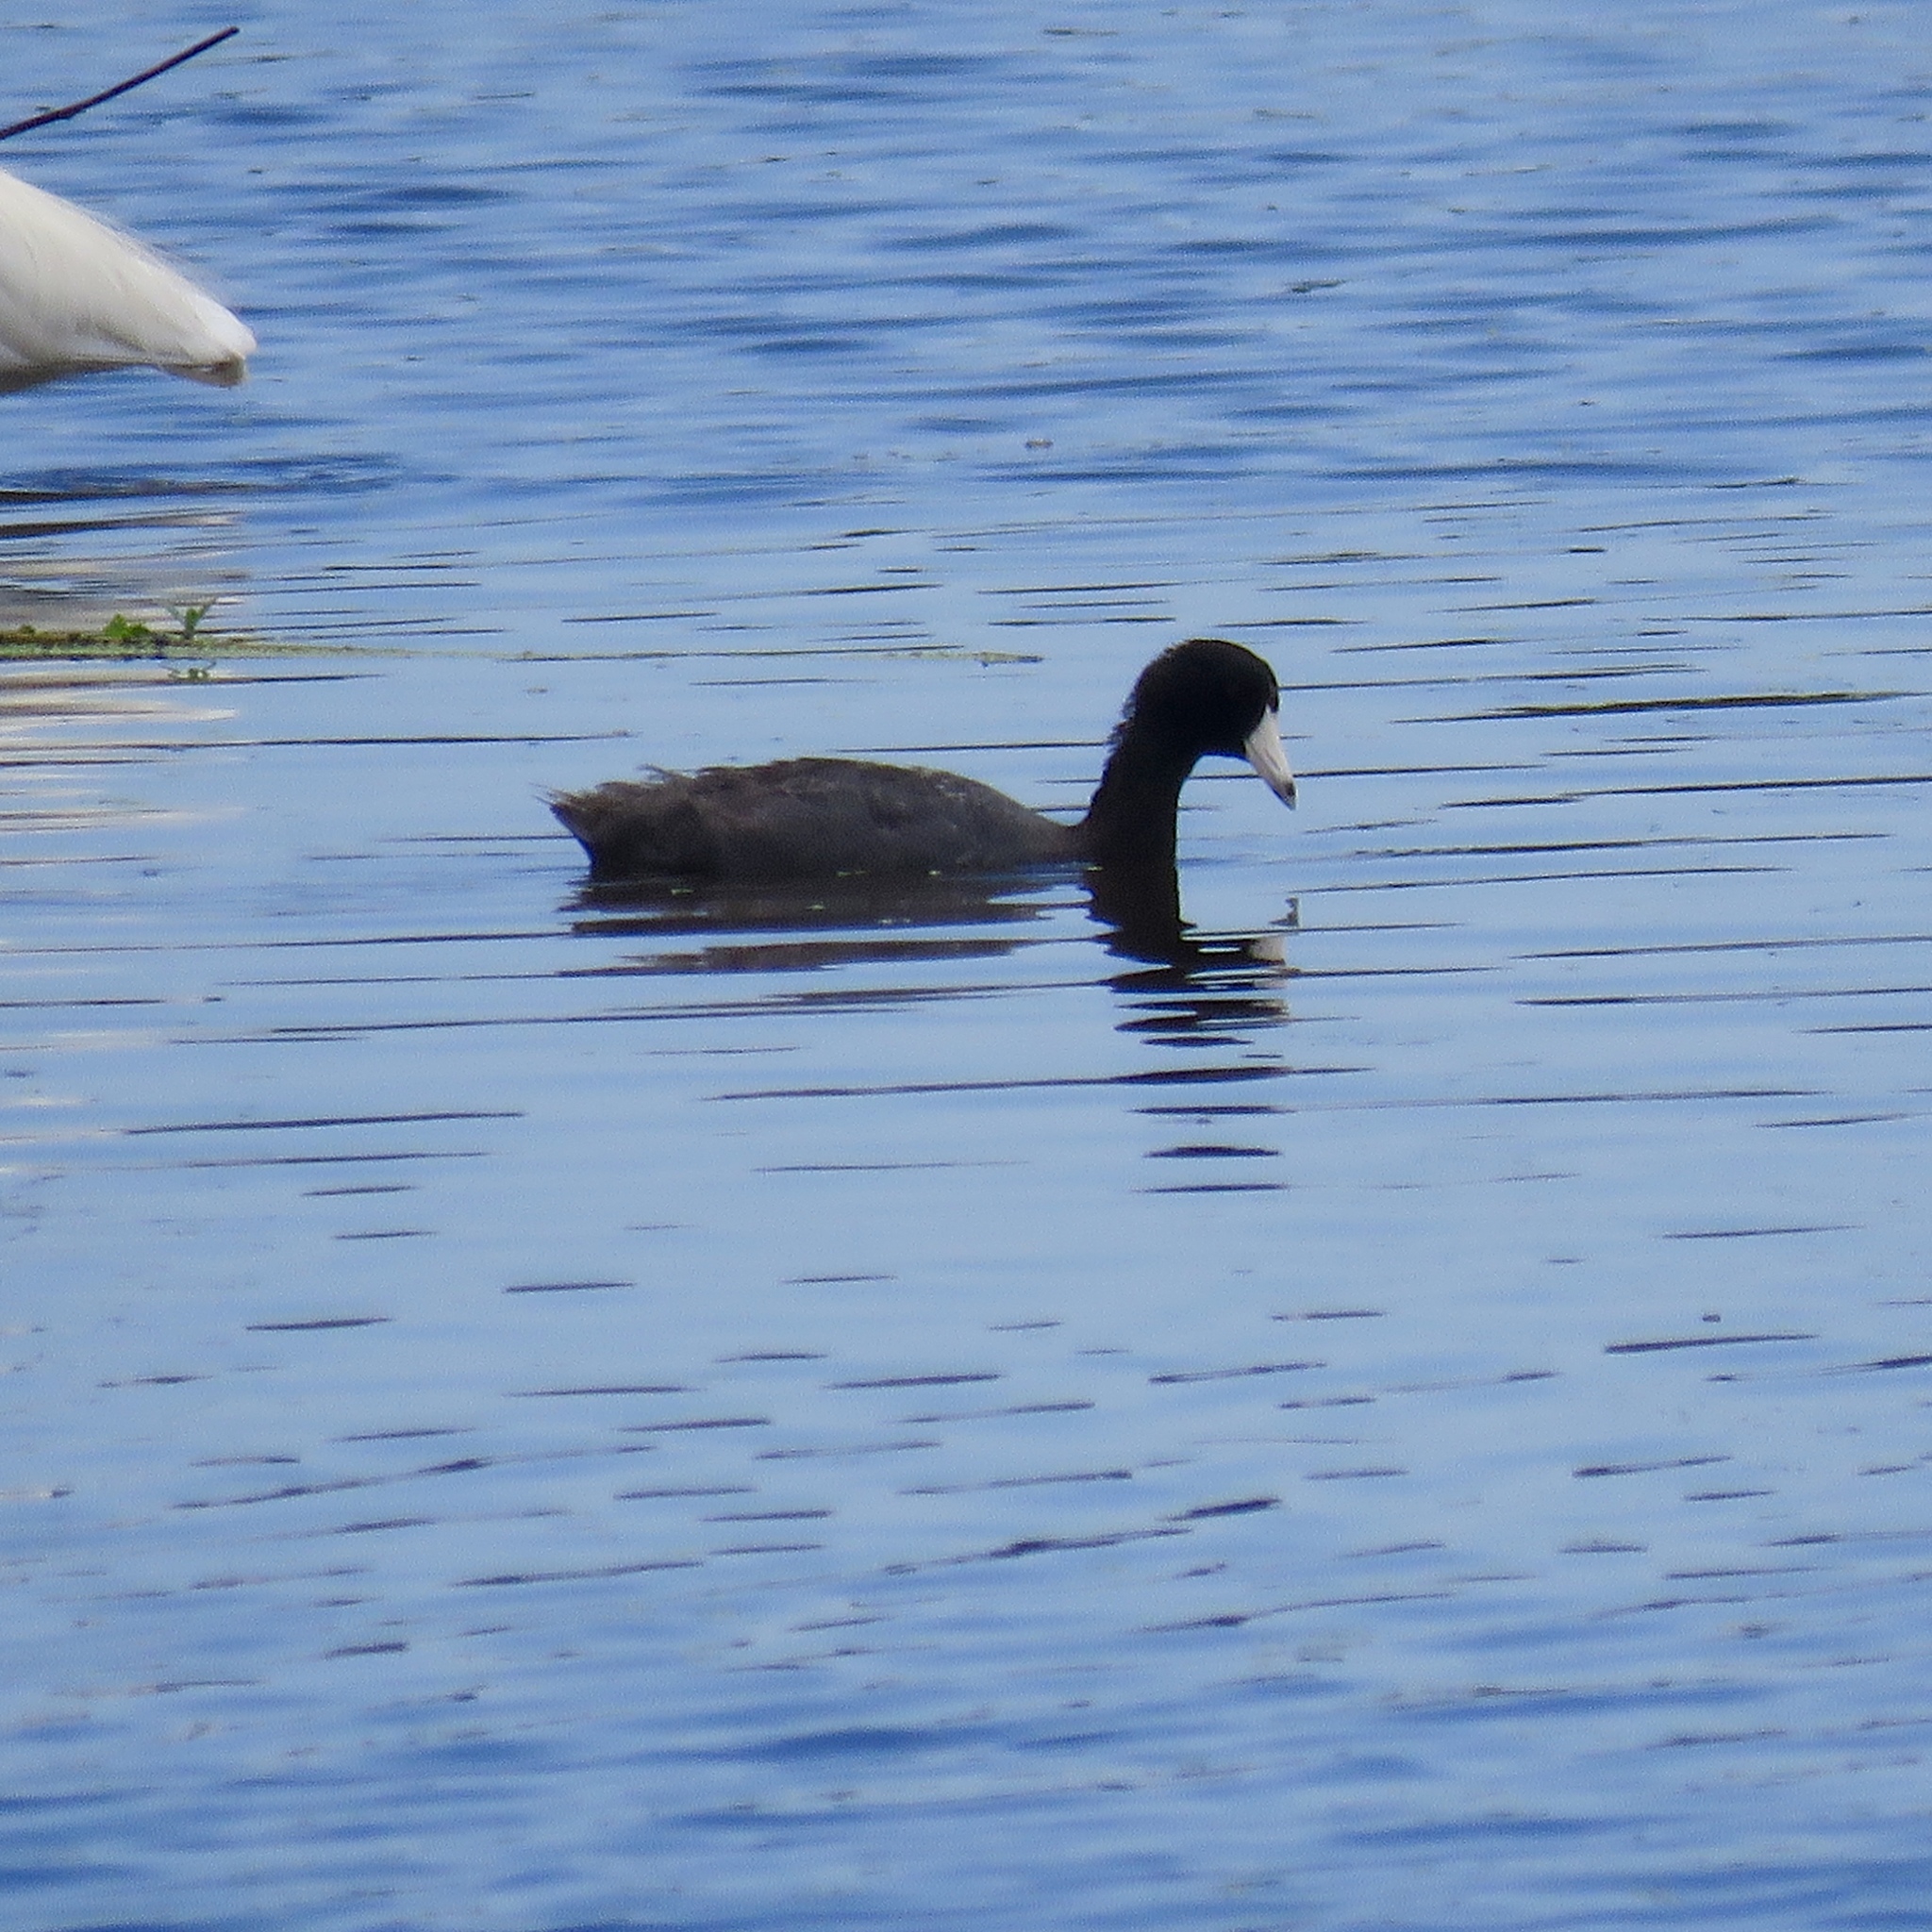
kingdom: Animalia
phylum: Chordata
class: Aves
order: Gruiformes
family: Rallidae
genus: Fulica
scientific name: Fulica americana
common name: American coot
